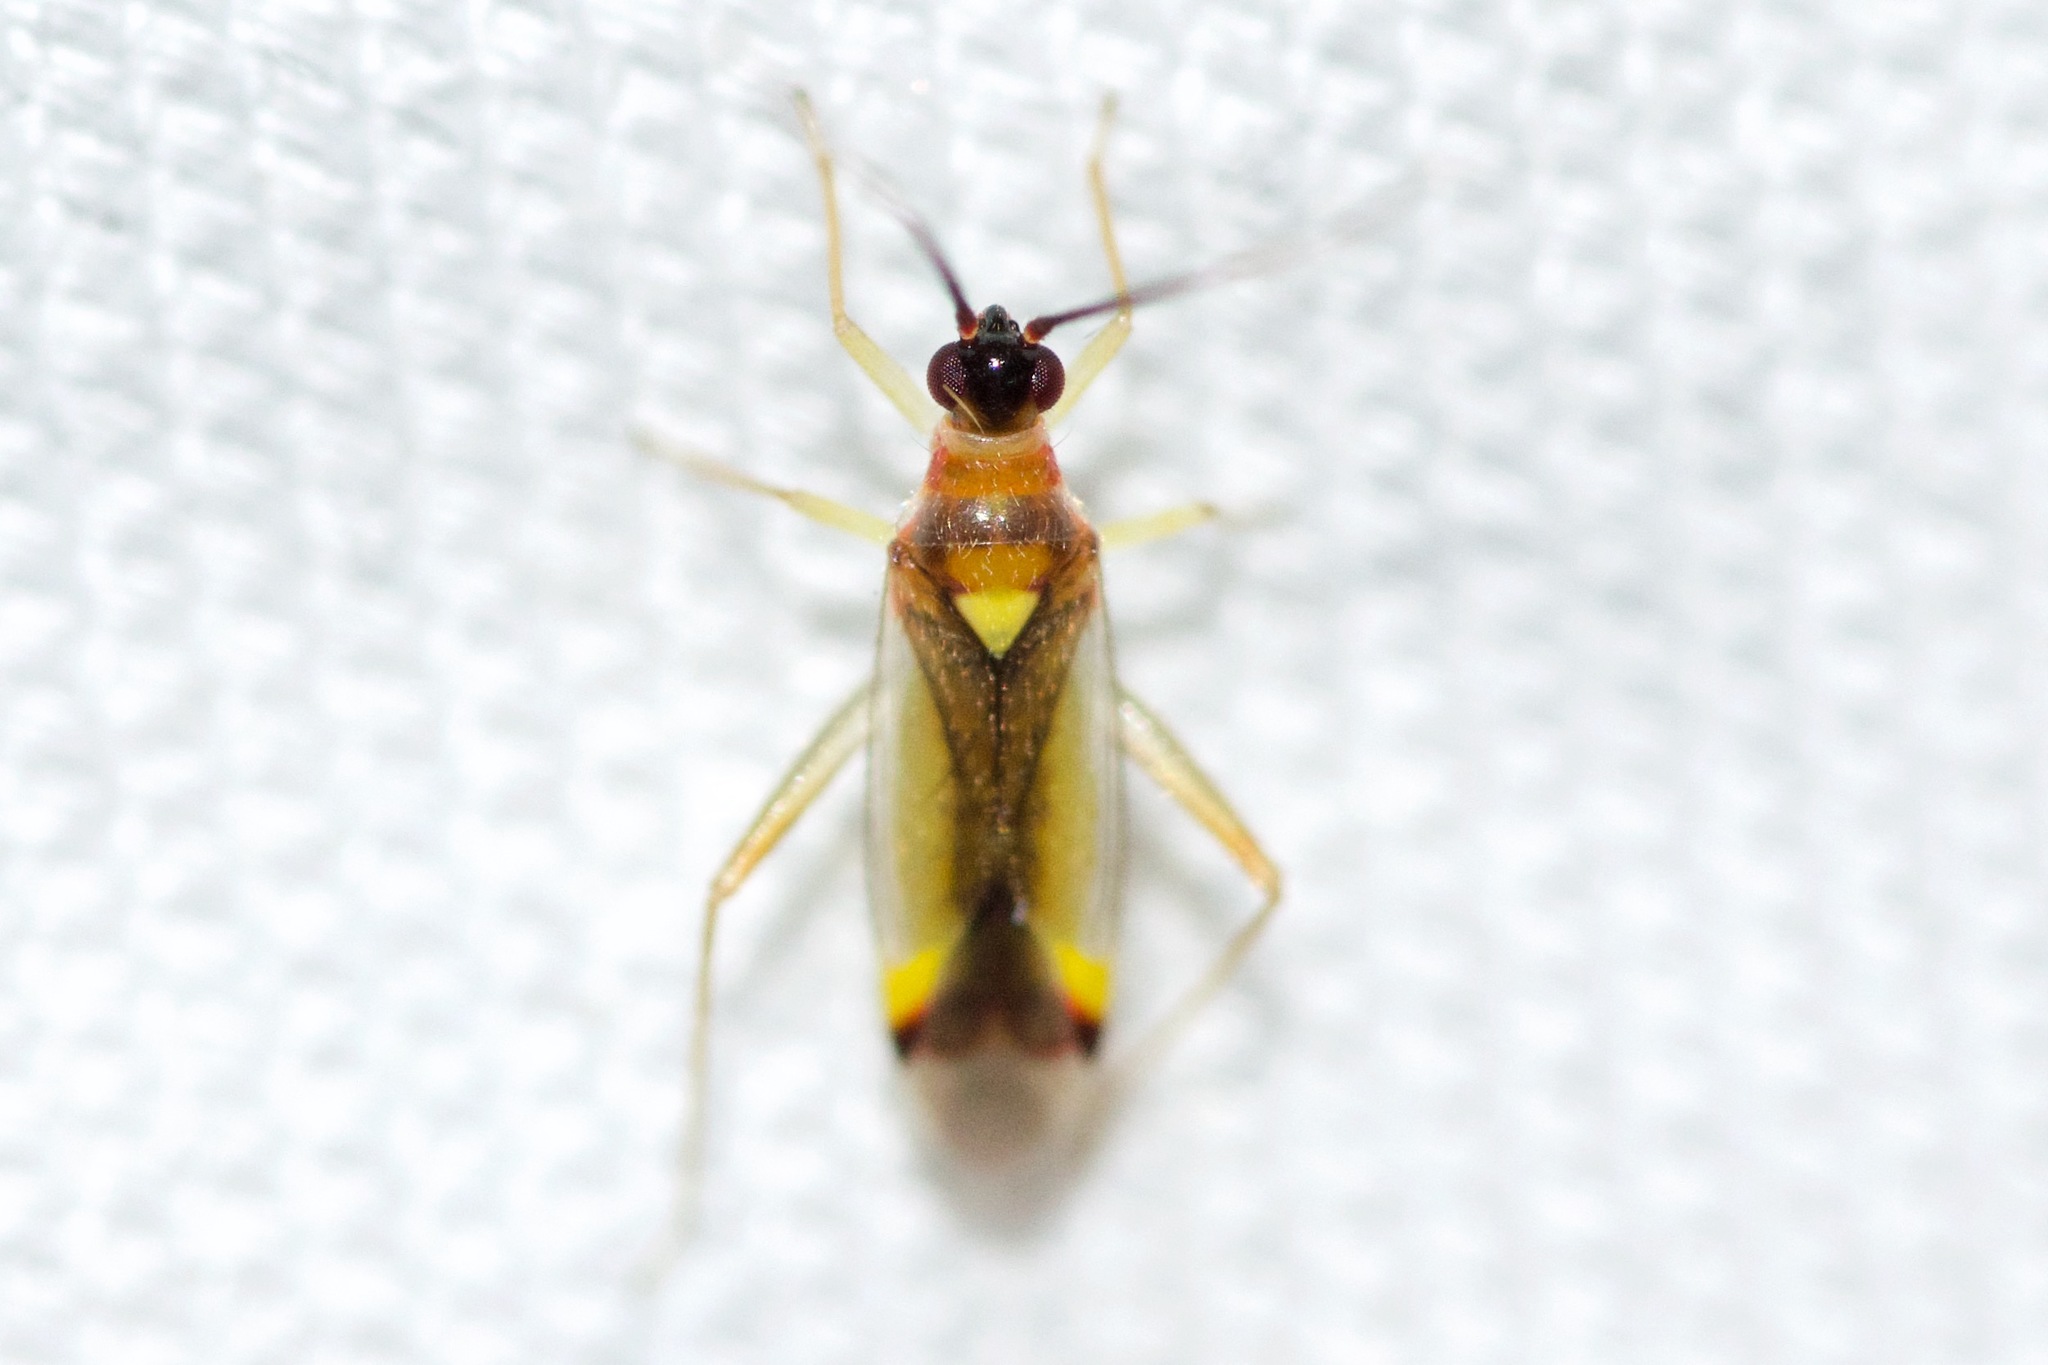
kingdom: Animalia
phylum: Arthropoda
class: Insecta
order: Hemiptera
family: Miridae
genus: Campyloneura
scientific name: Campyloneura virgula
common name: Predatory bug
